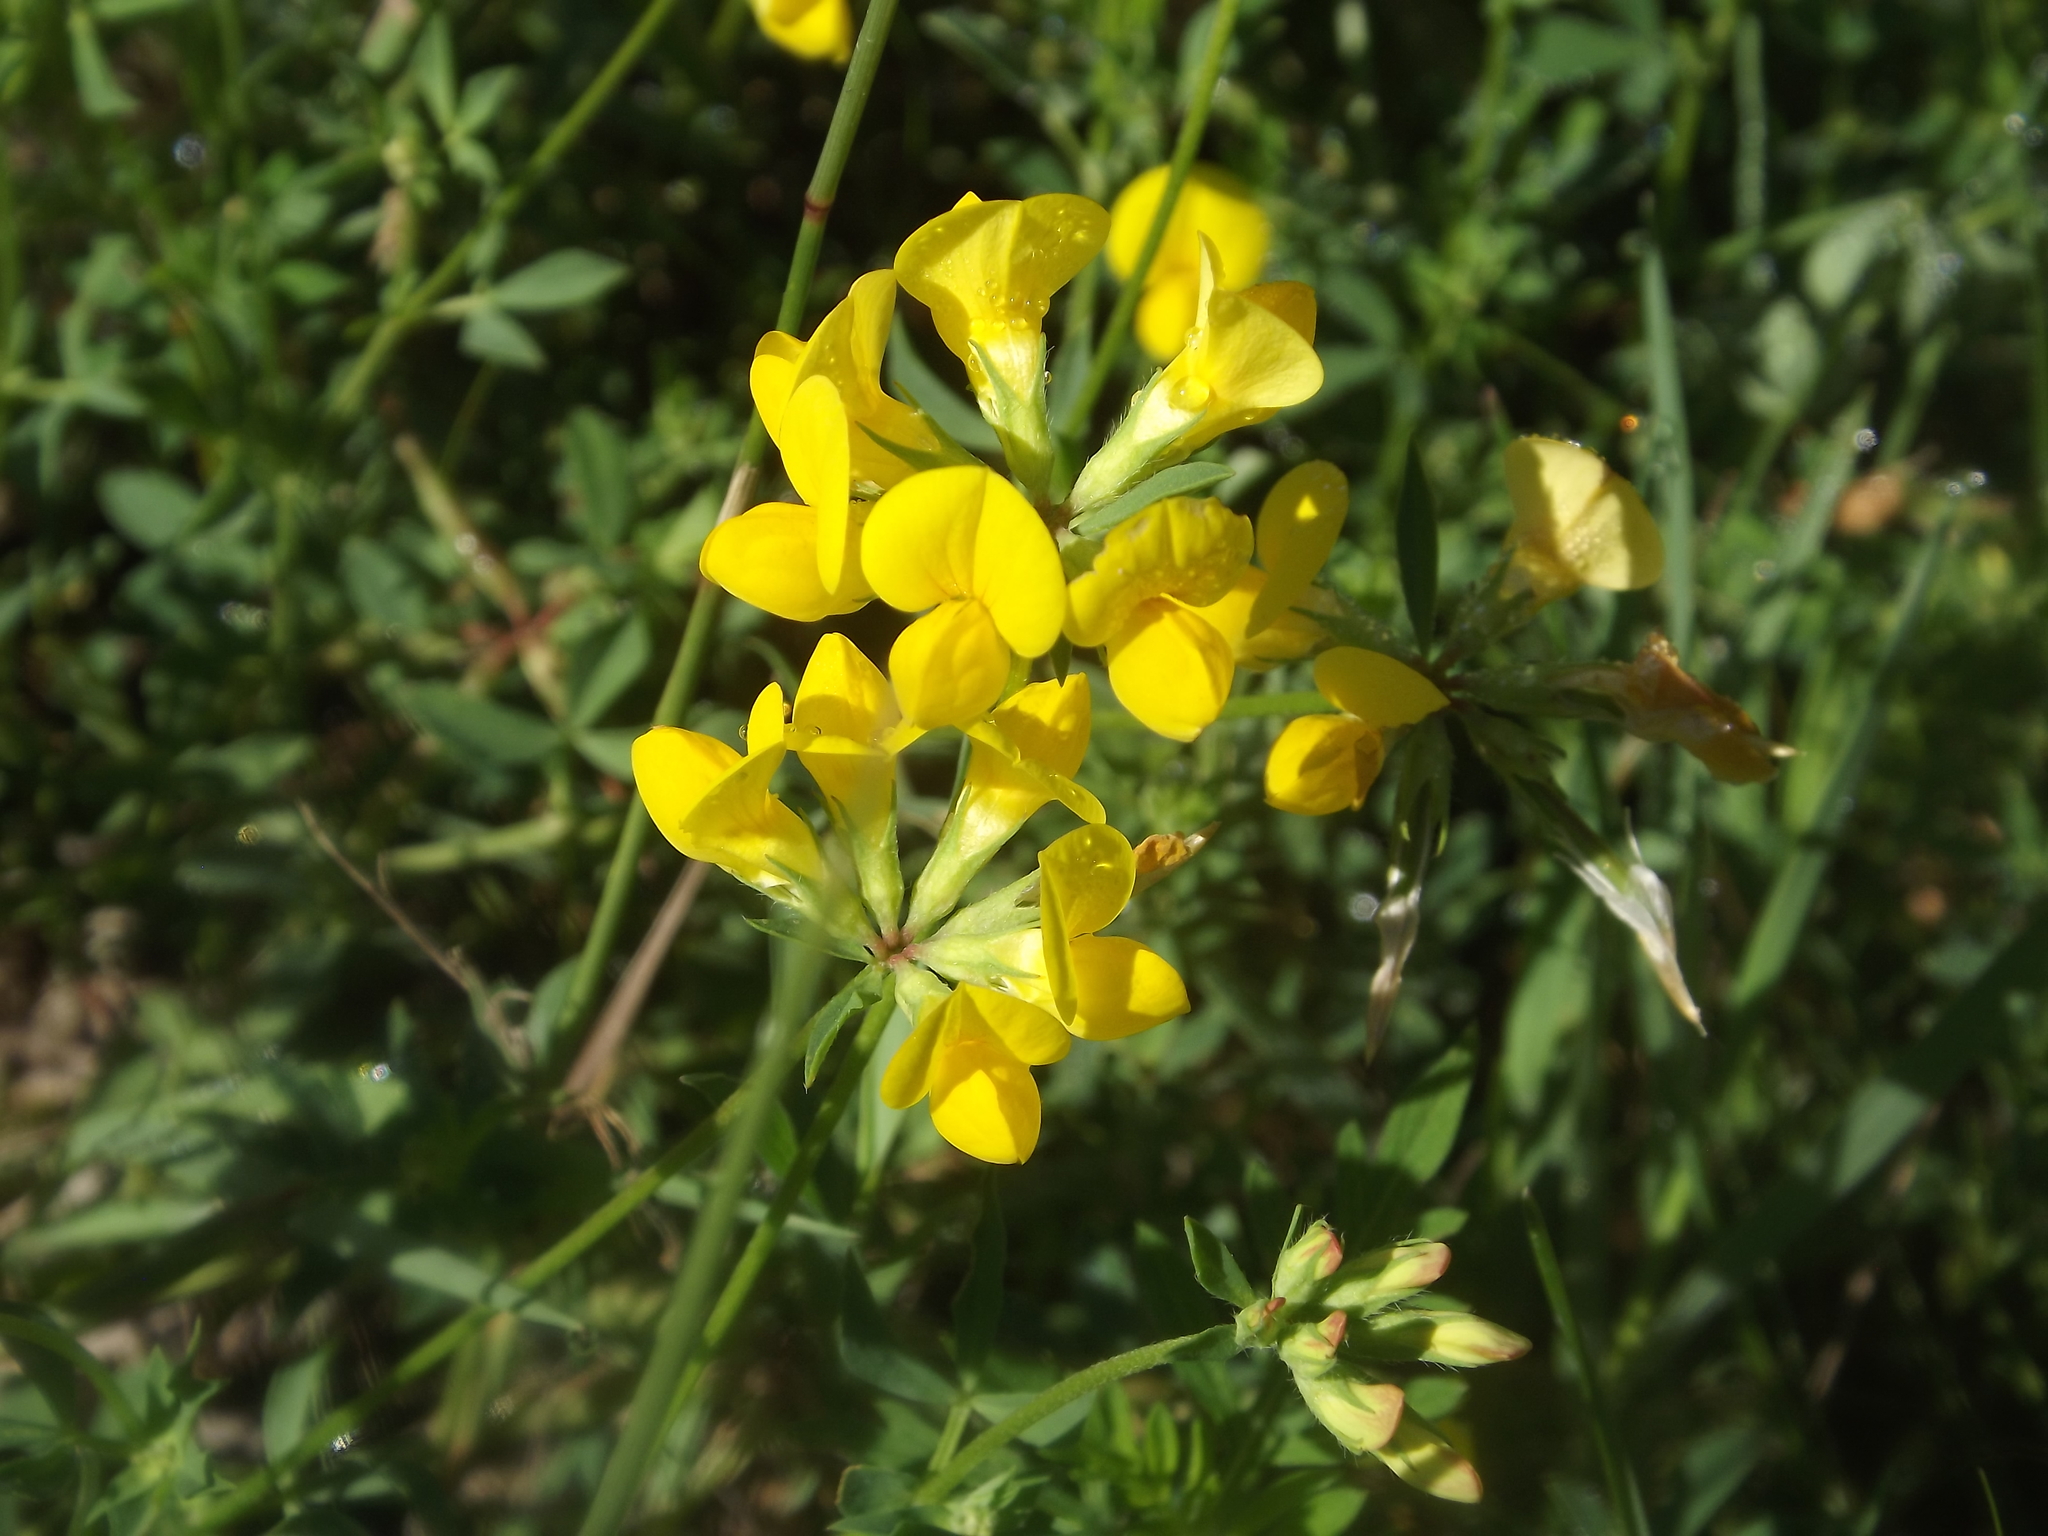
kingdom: Plantae
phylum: Tracheophyta
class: Magnoliopsida
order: Fabales
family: Fabaceae
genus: Lotus
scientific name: Lotus corniculatus
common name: Common bird's-foot-trefoil
